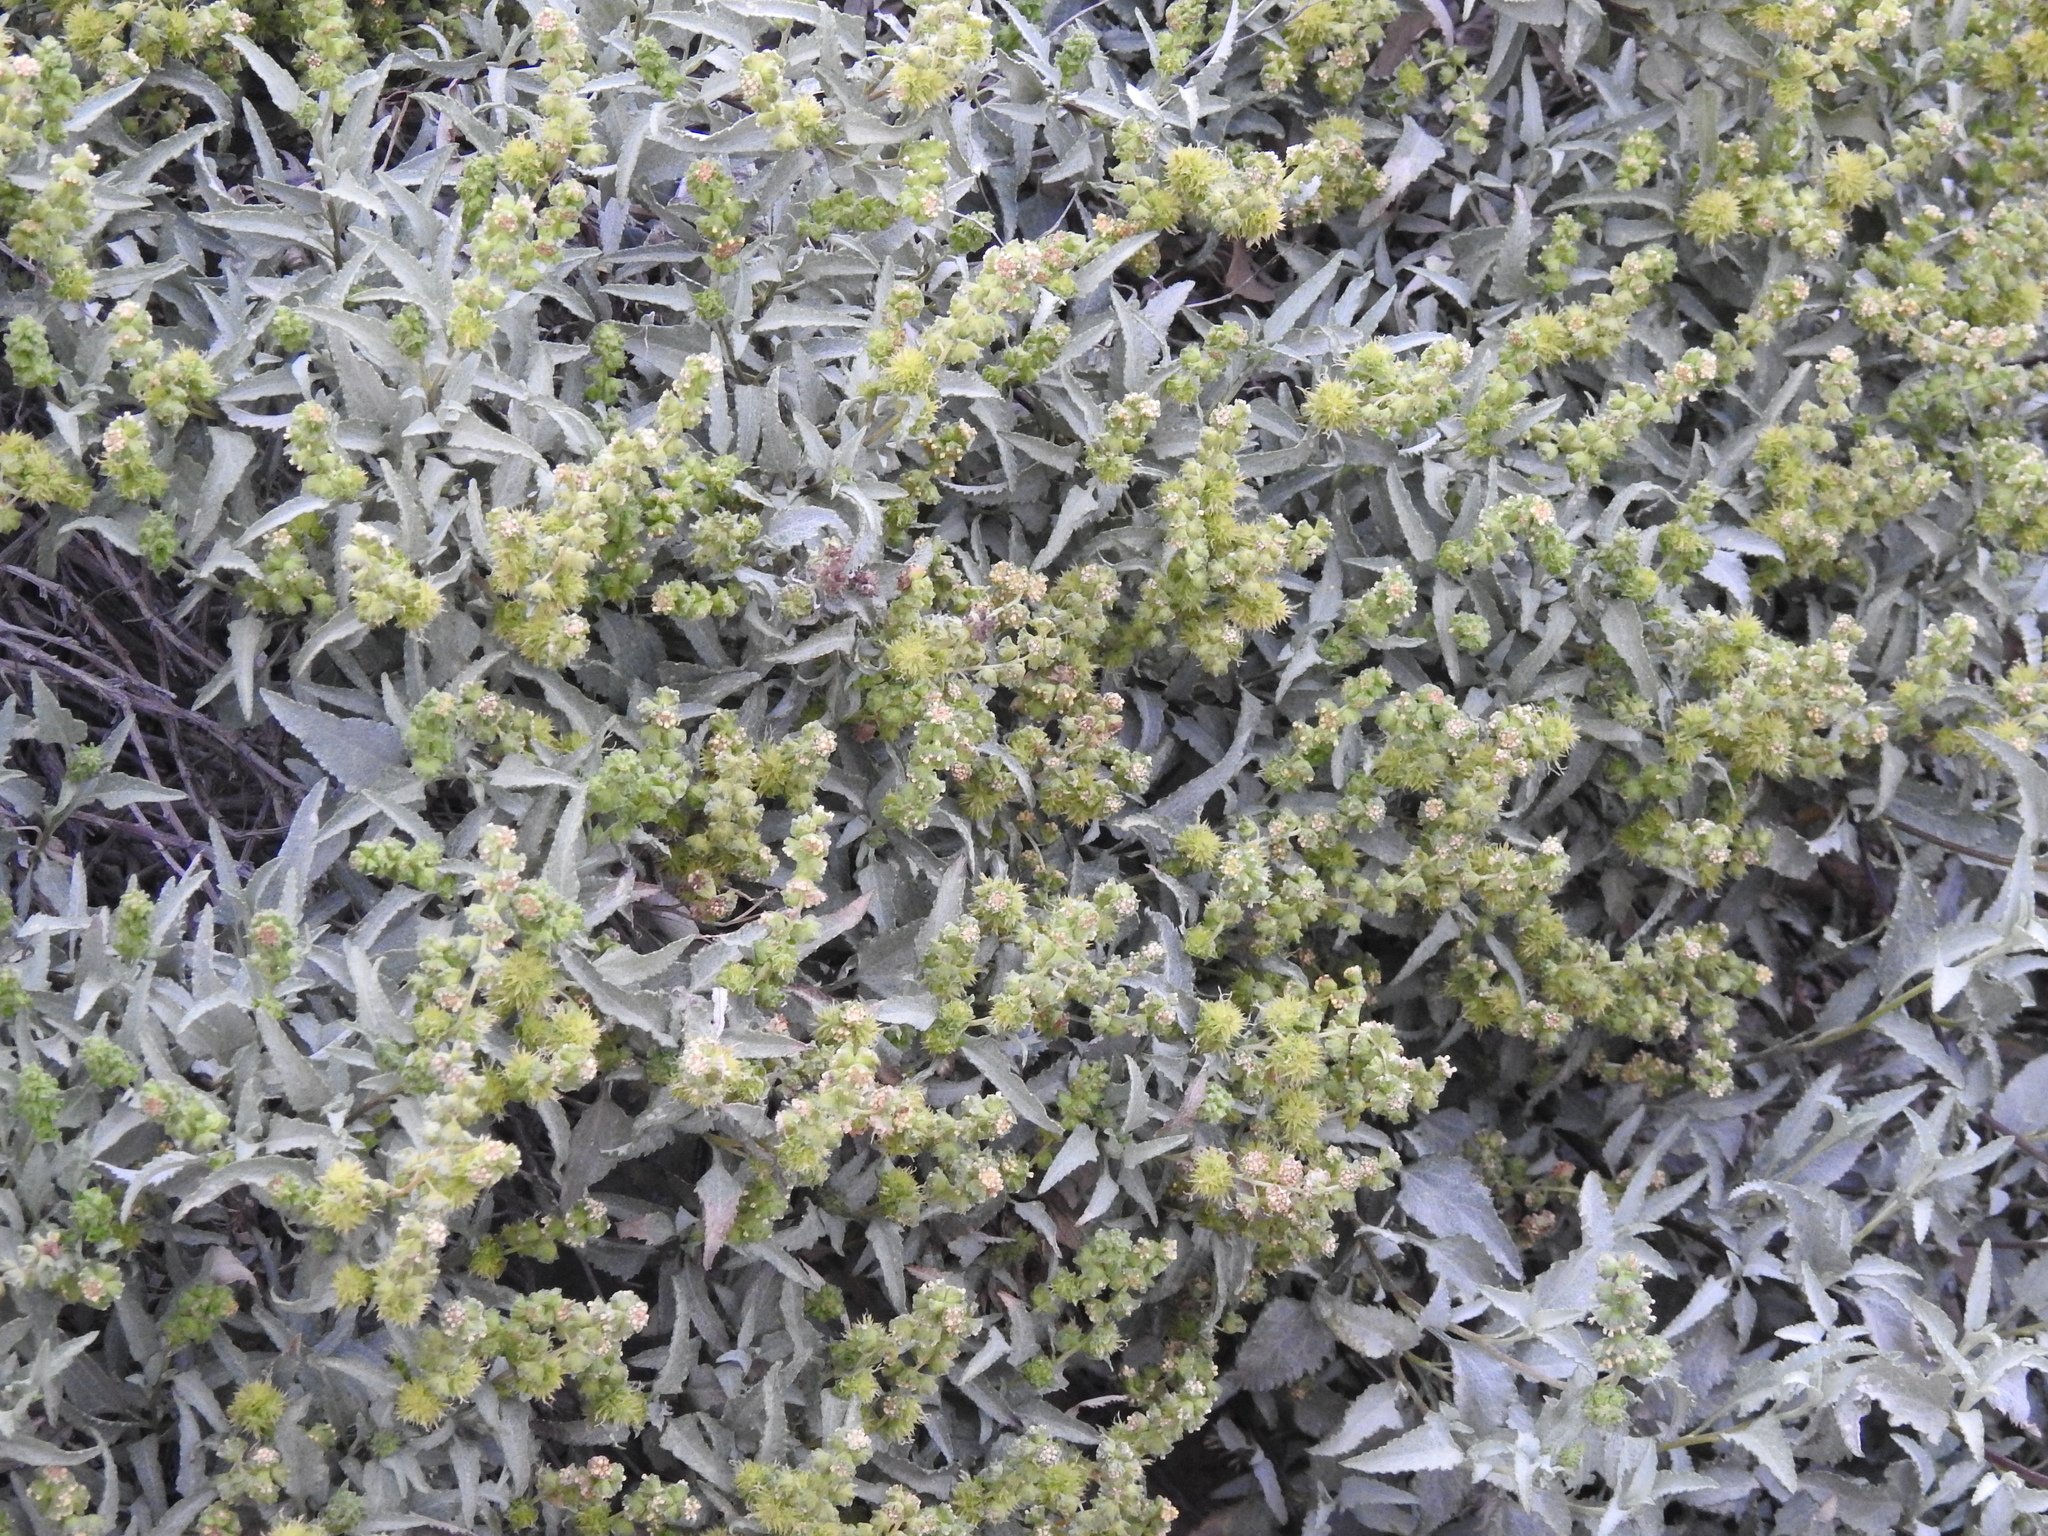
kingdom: Plantae
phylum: Tracheophyta
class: Magnoliopsida
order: Asterales
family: Asteraceae
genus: Ambrosia
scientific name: Ambrosia deltoidea
